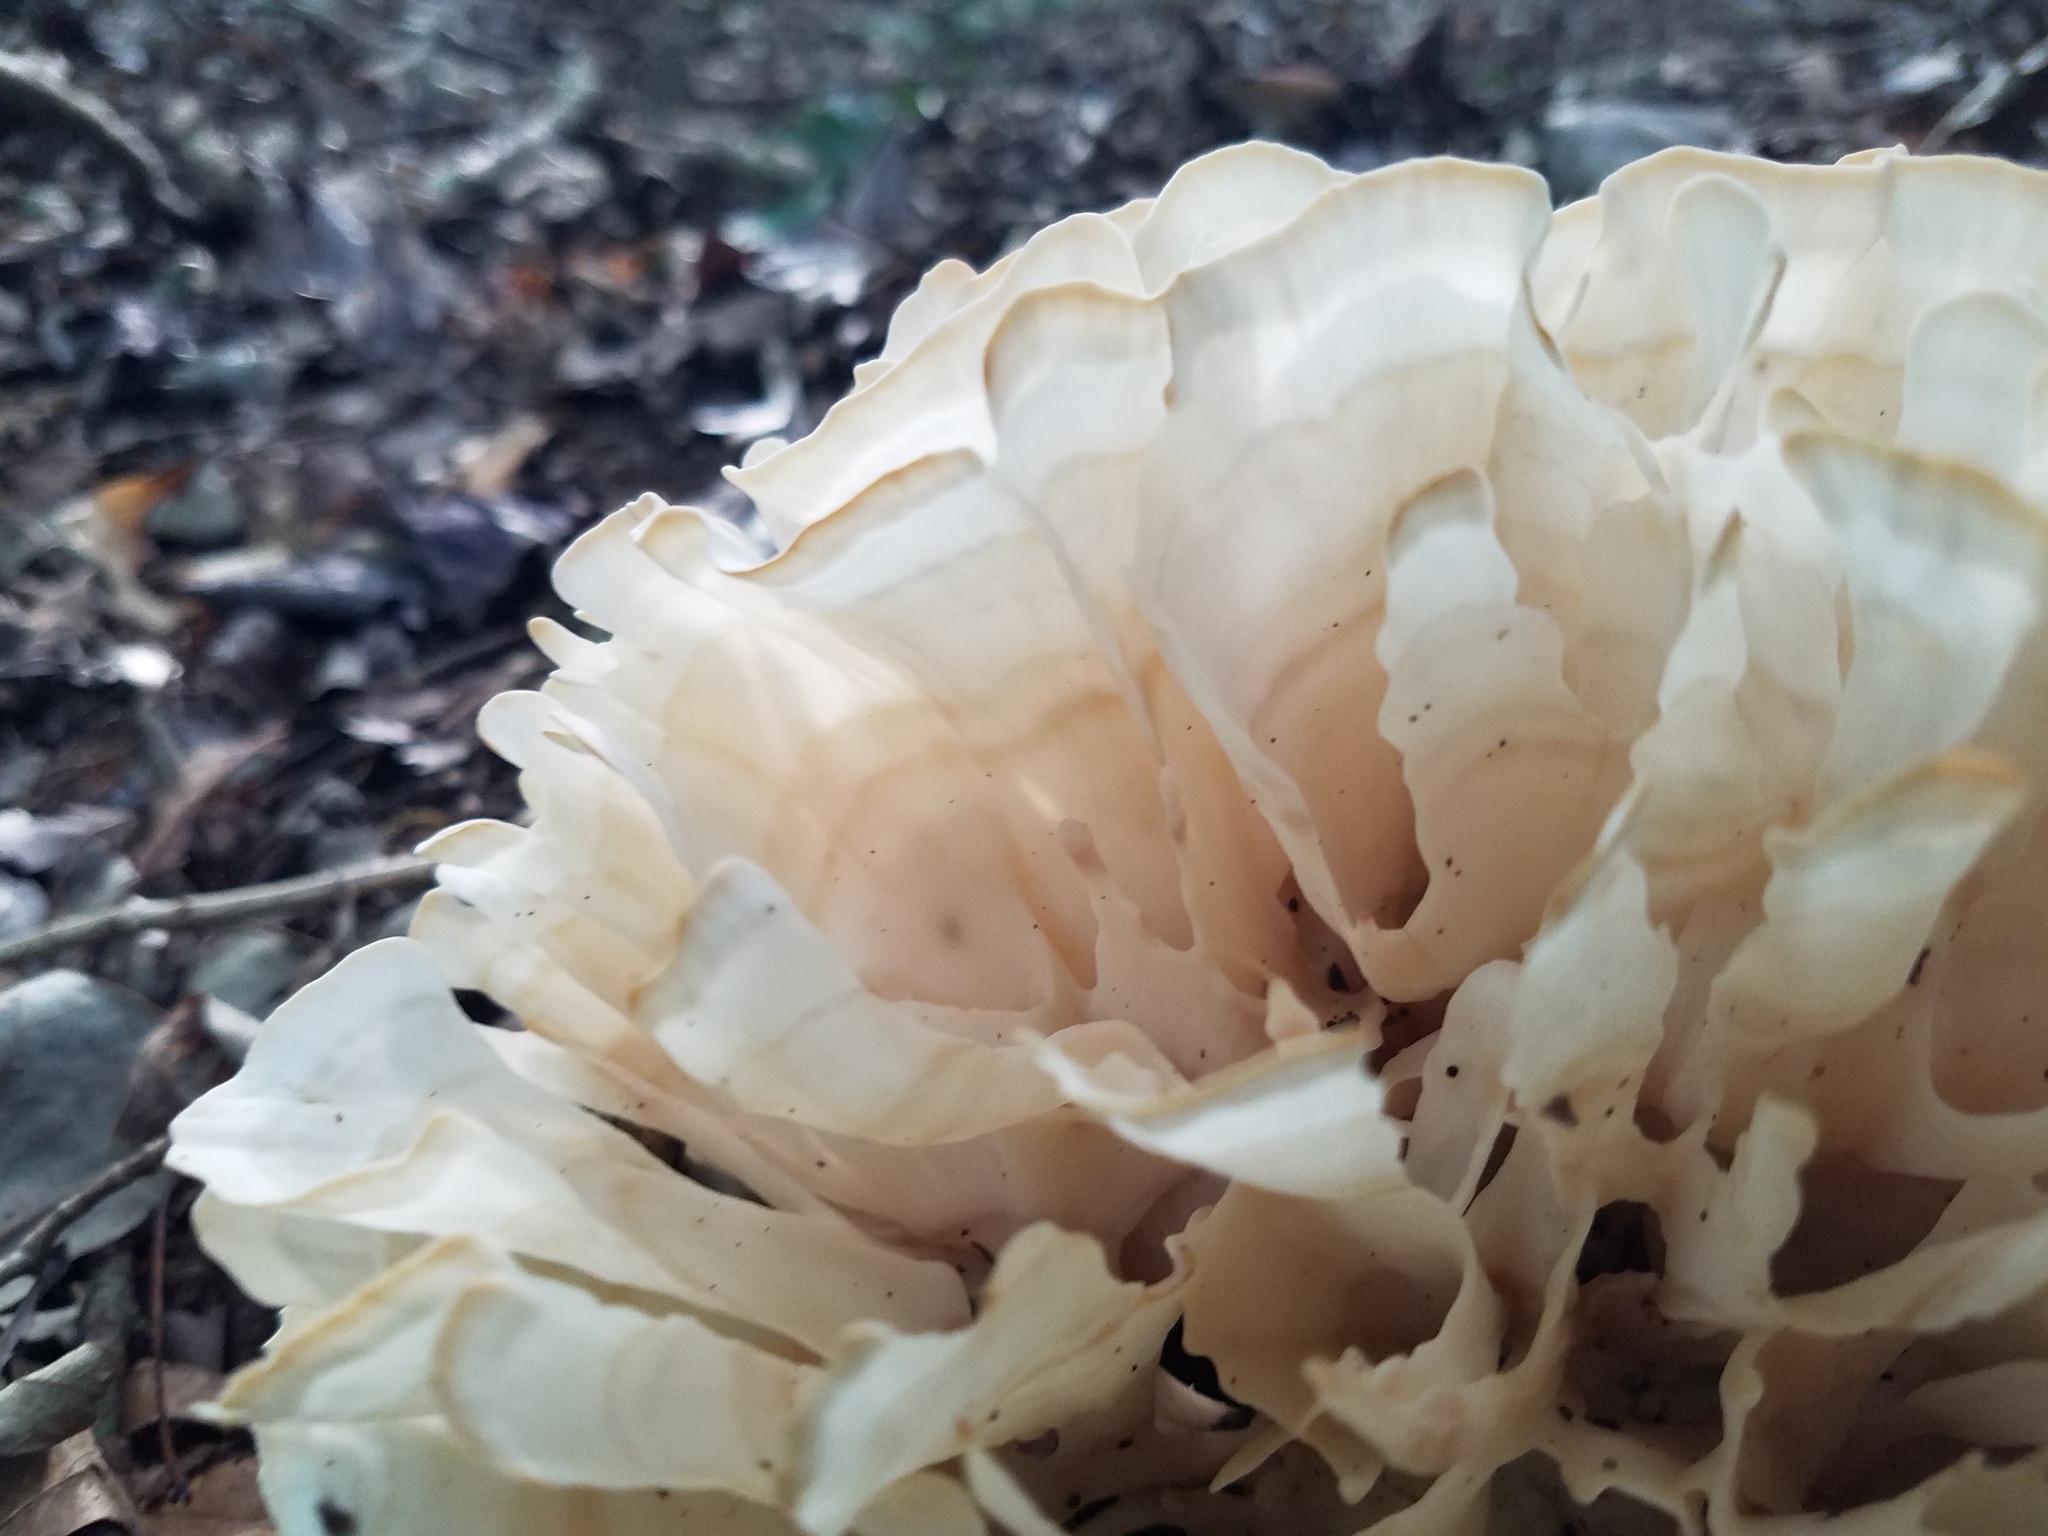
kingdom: Fungi
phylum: Basidiomycota
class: Agaricomycetes
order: Polyporales
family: Sparassidaceae
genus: Sparassis
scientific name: Sparassis spathulata
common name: Eastern cauliflower mushroom
